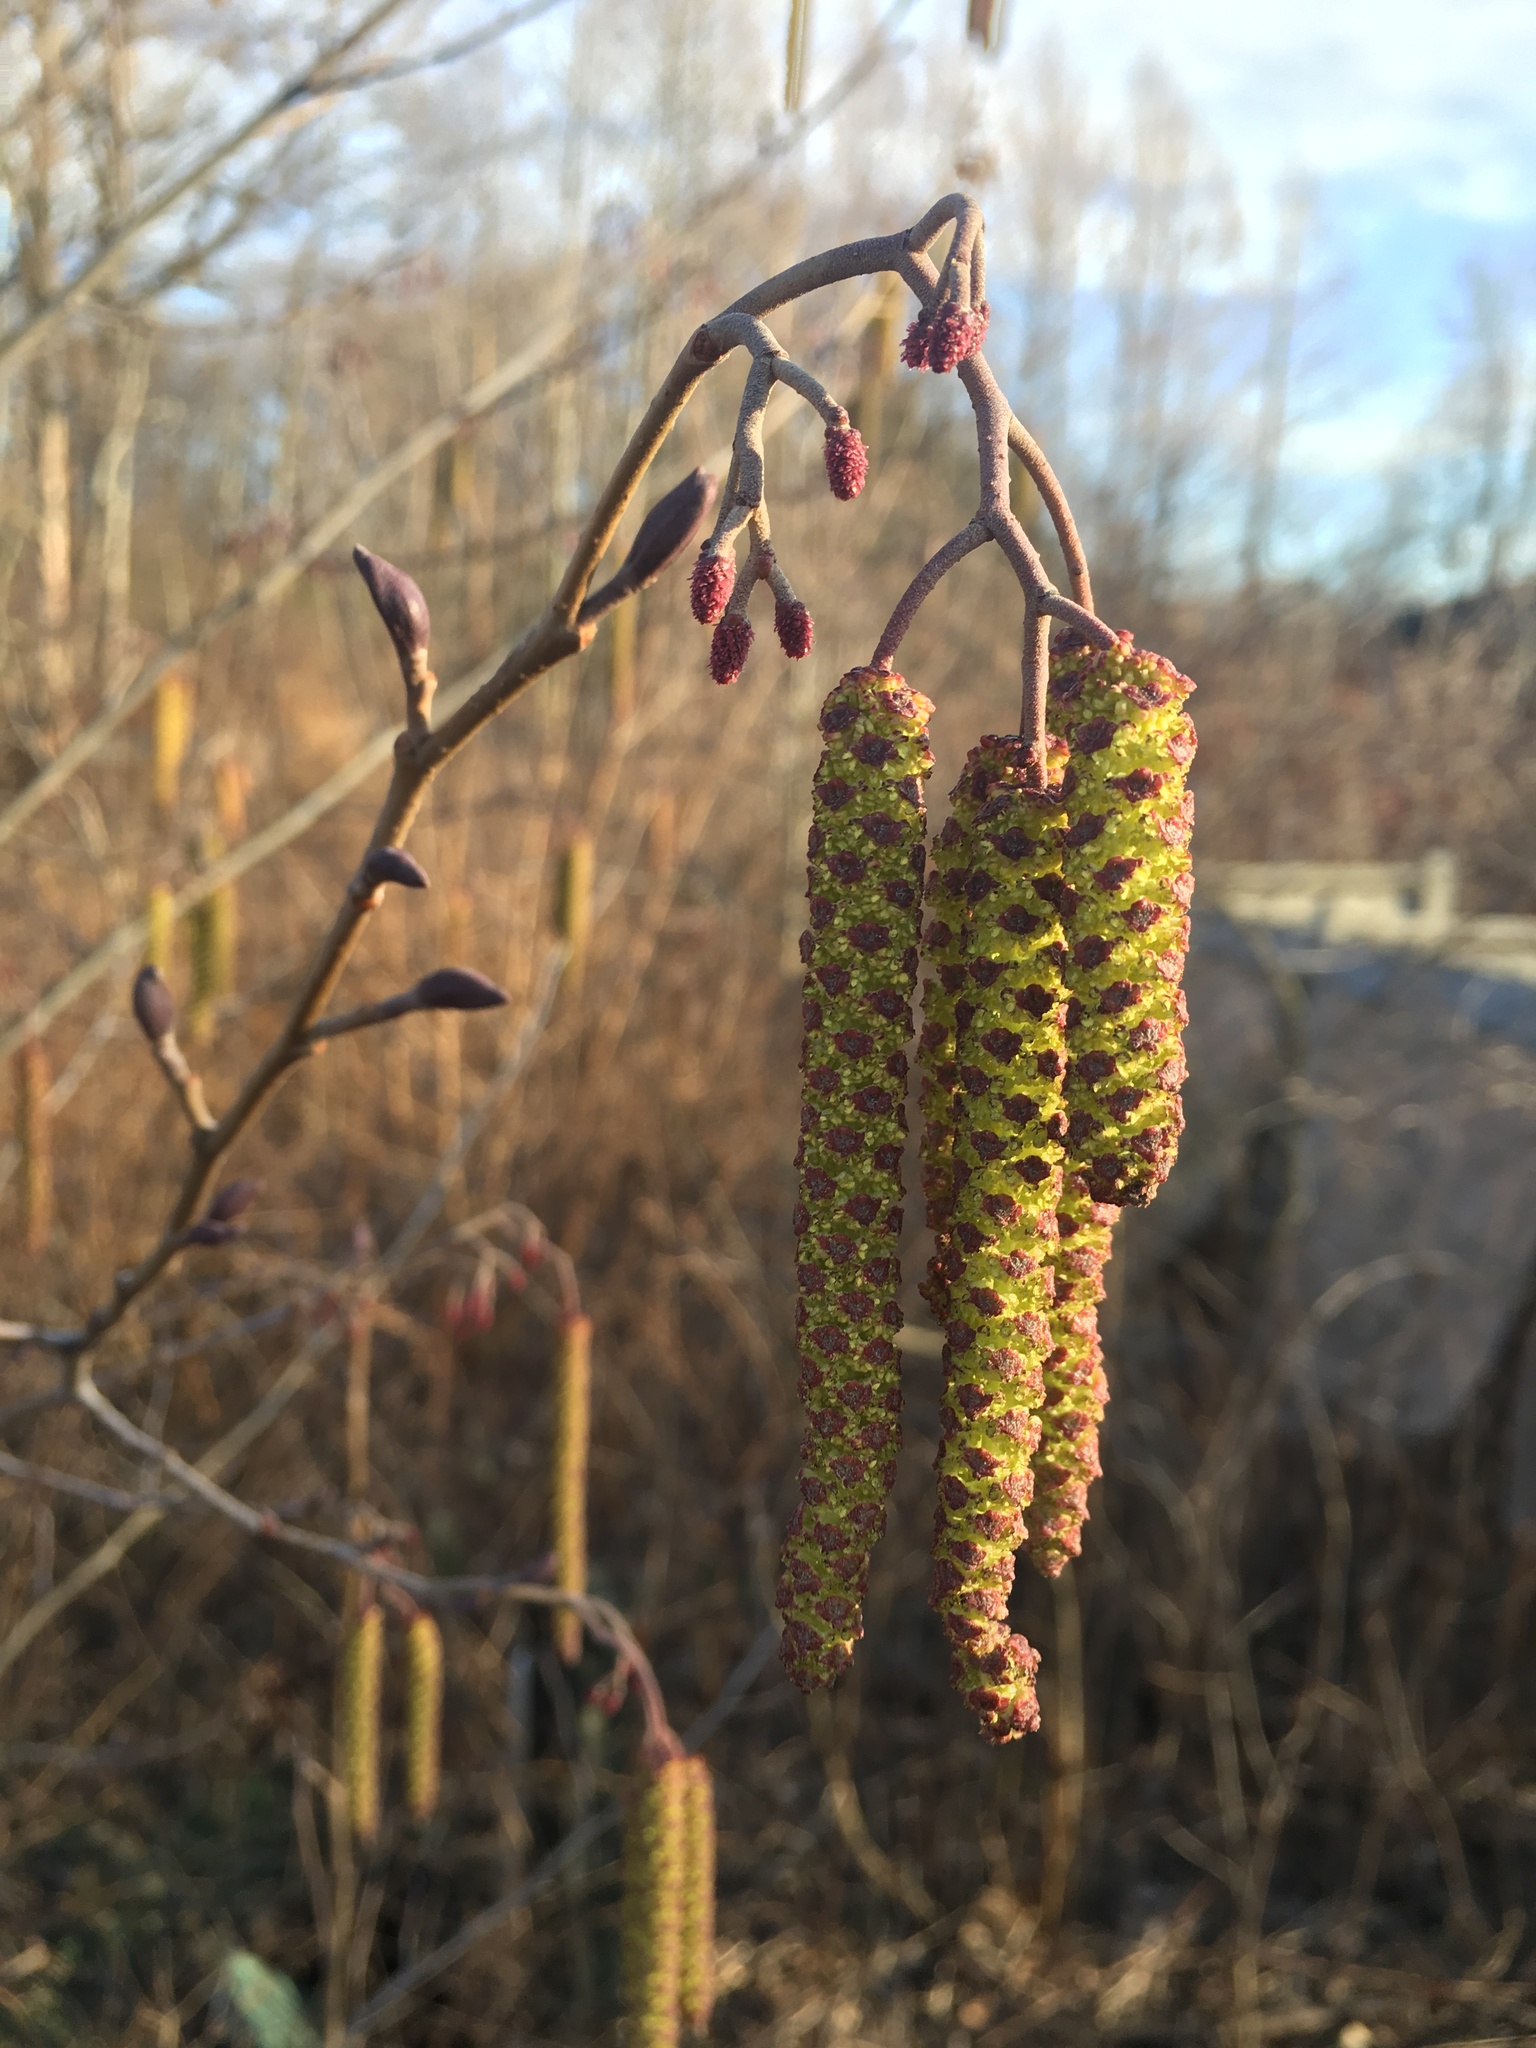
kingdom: Plantae
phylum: Tracheophyta
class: Magnoliopsida
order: Fagales
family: Betulaceae
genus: Alnus
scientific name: Alnus incana
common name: Grey alder
